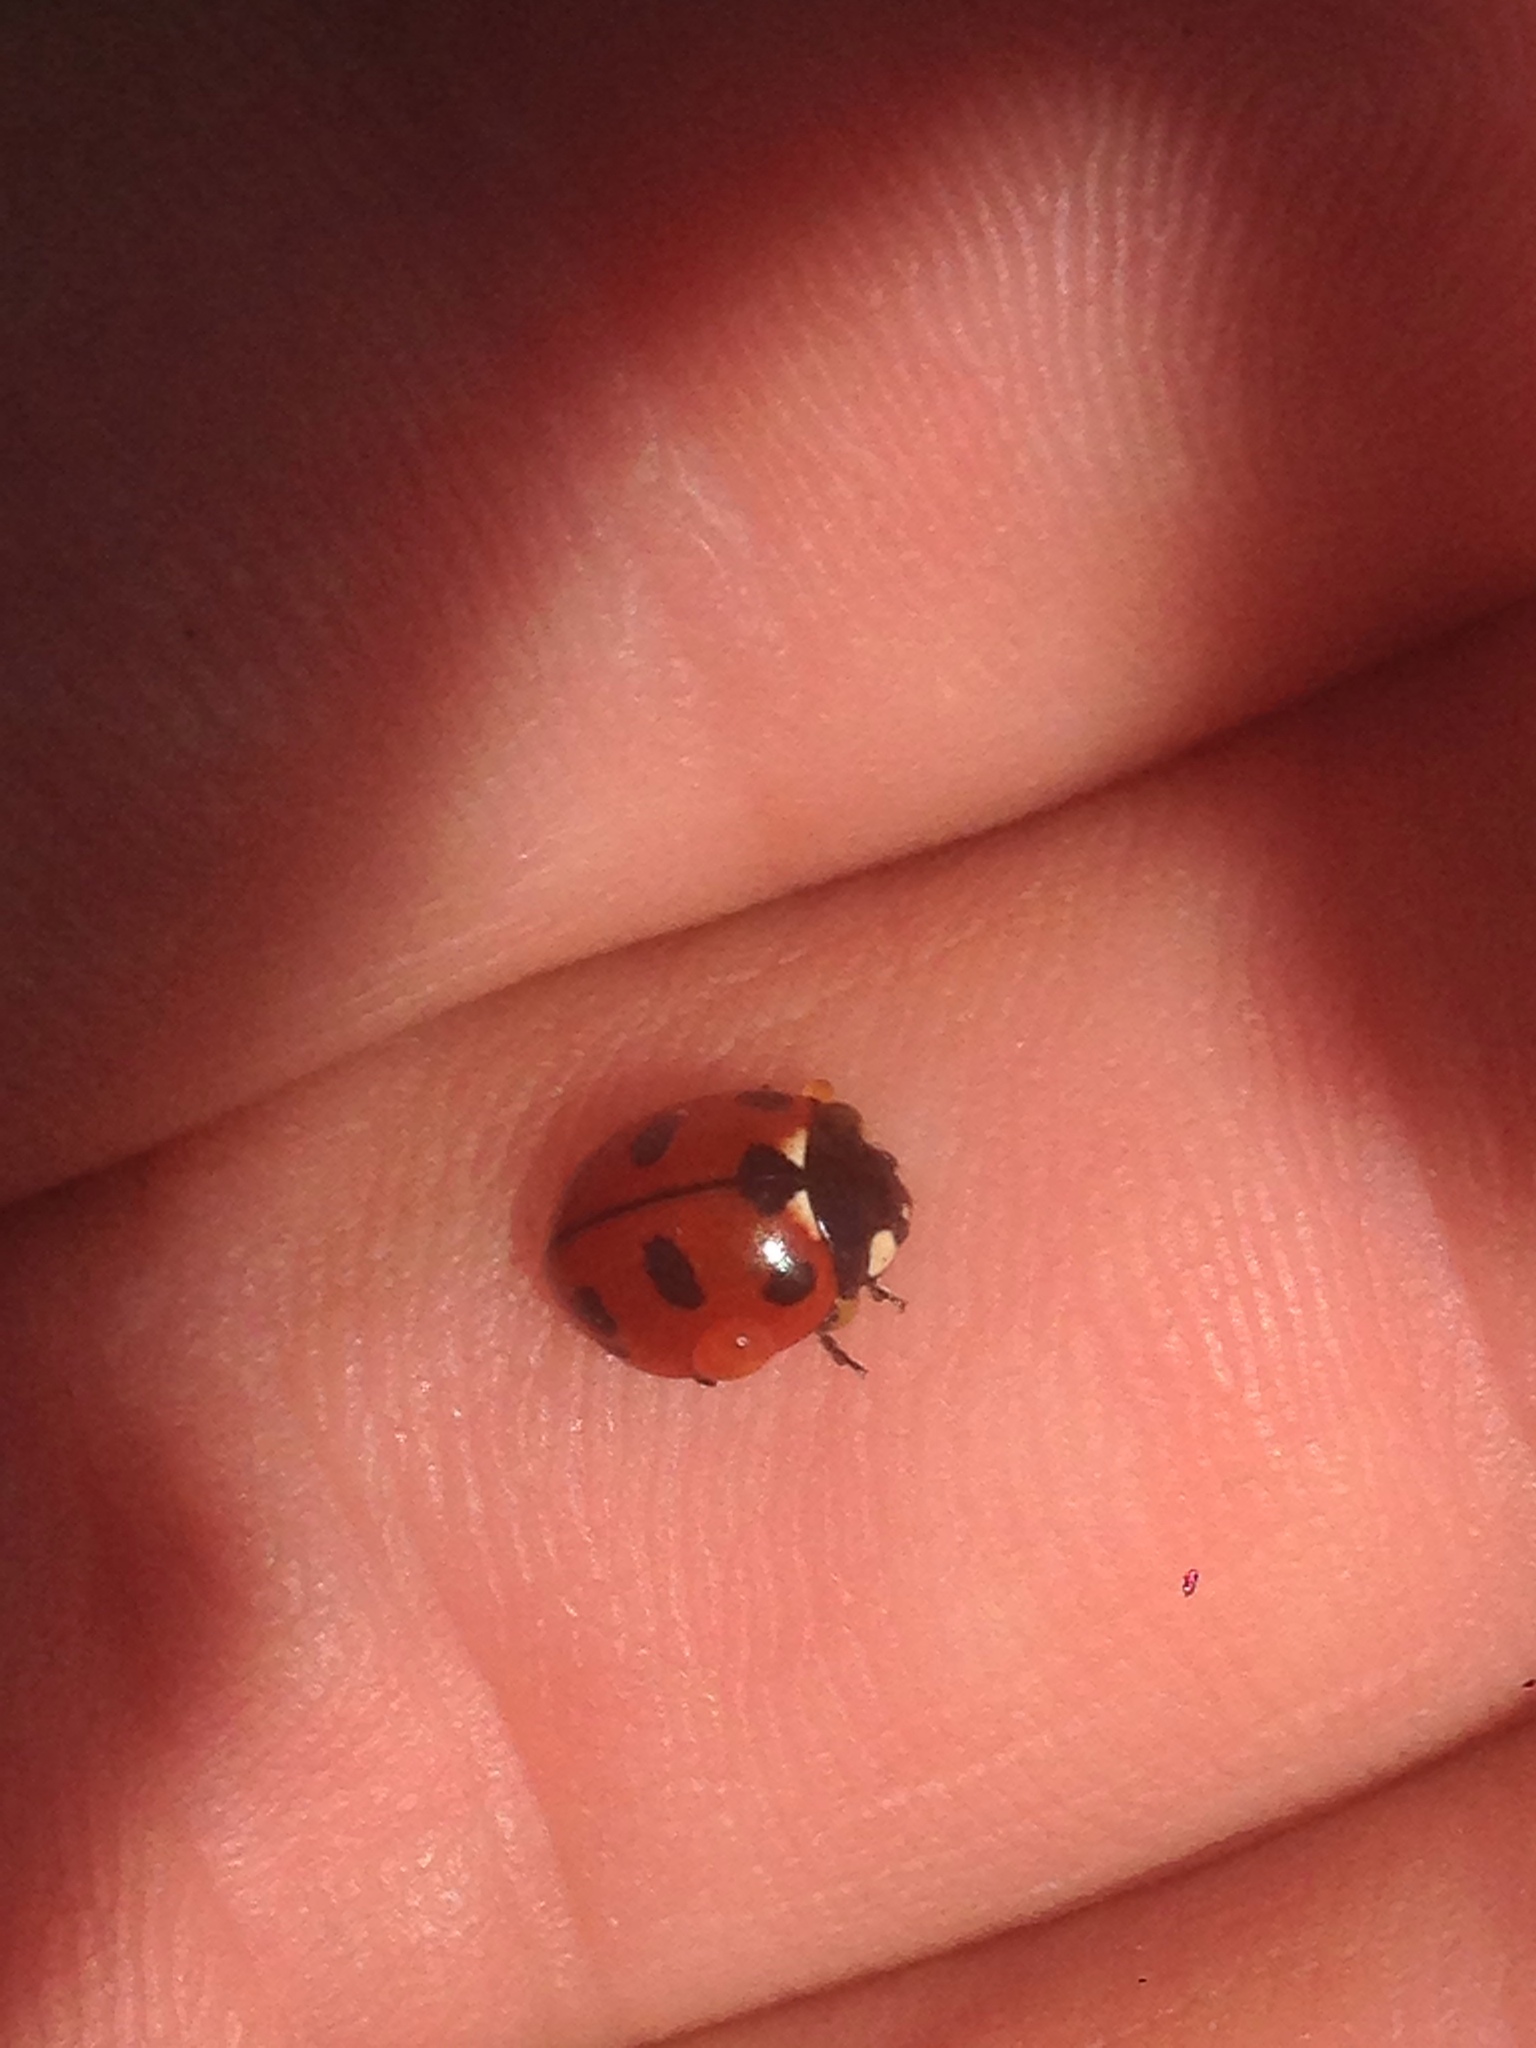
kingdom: Animalia
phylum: Arthropoda
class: Insecta
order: Coleoptera
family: Coccinellidae
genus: Coccinella
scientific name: Coccinella californica
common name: Lady beetle
